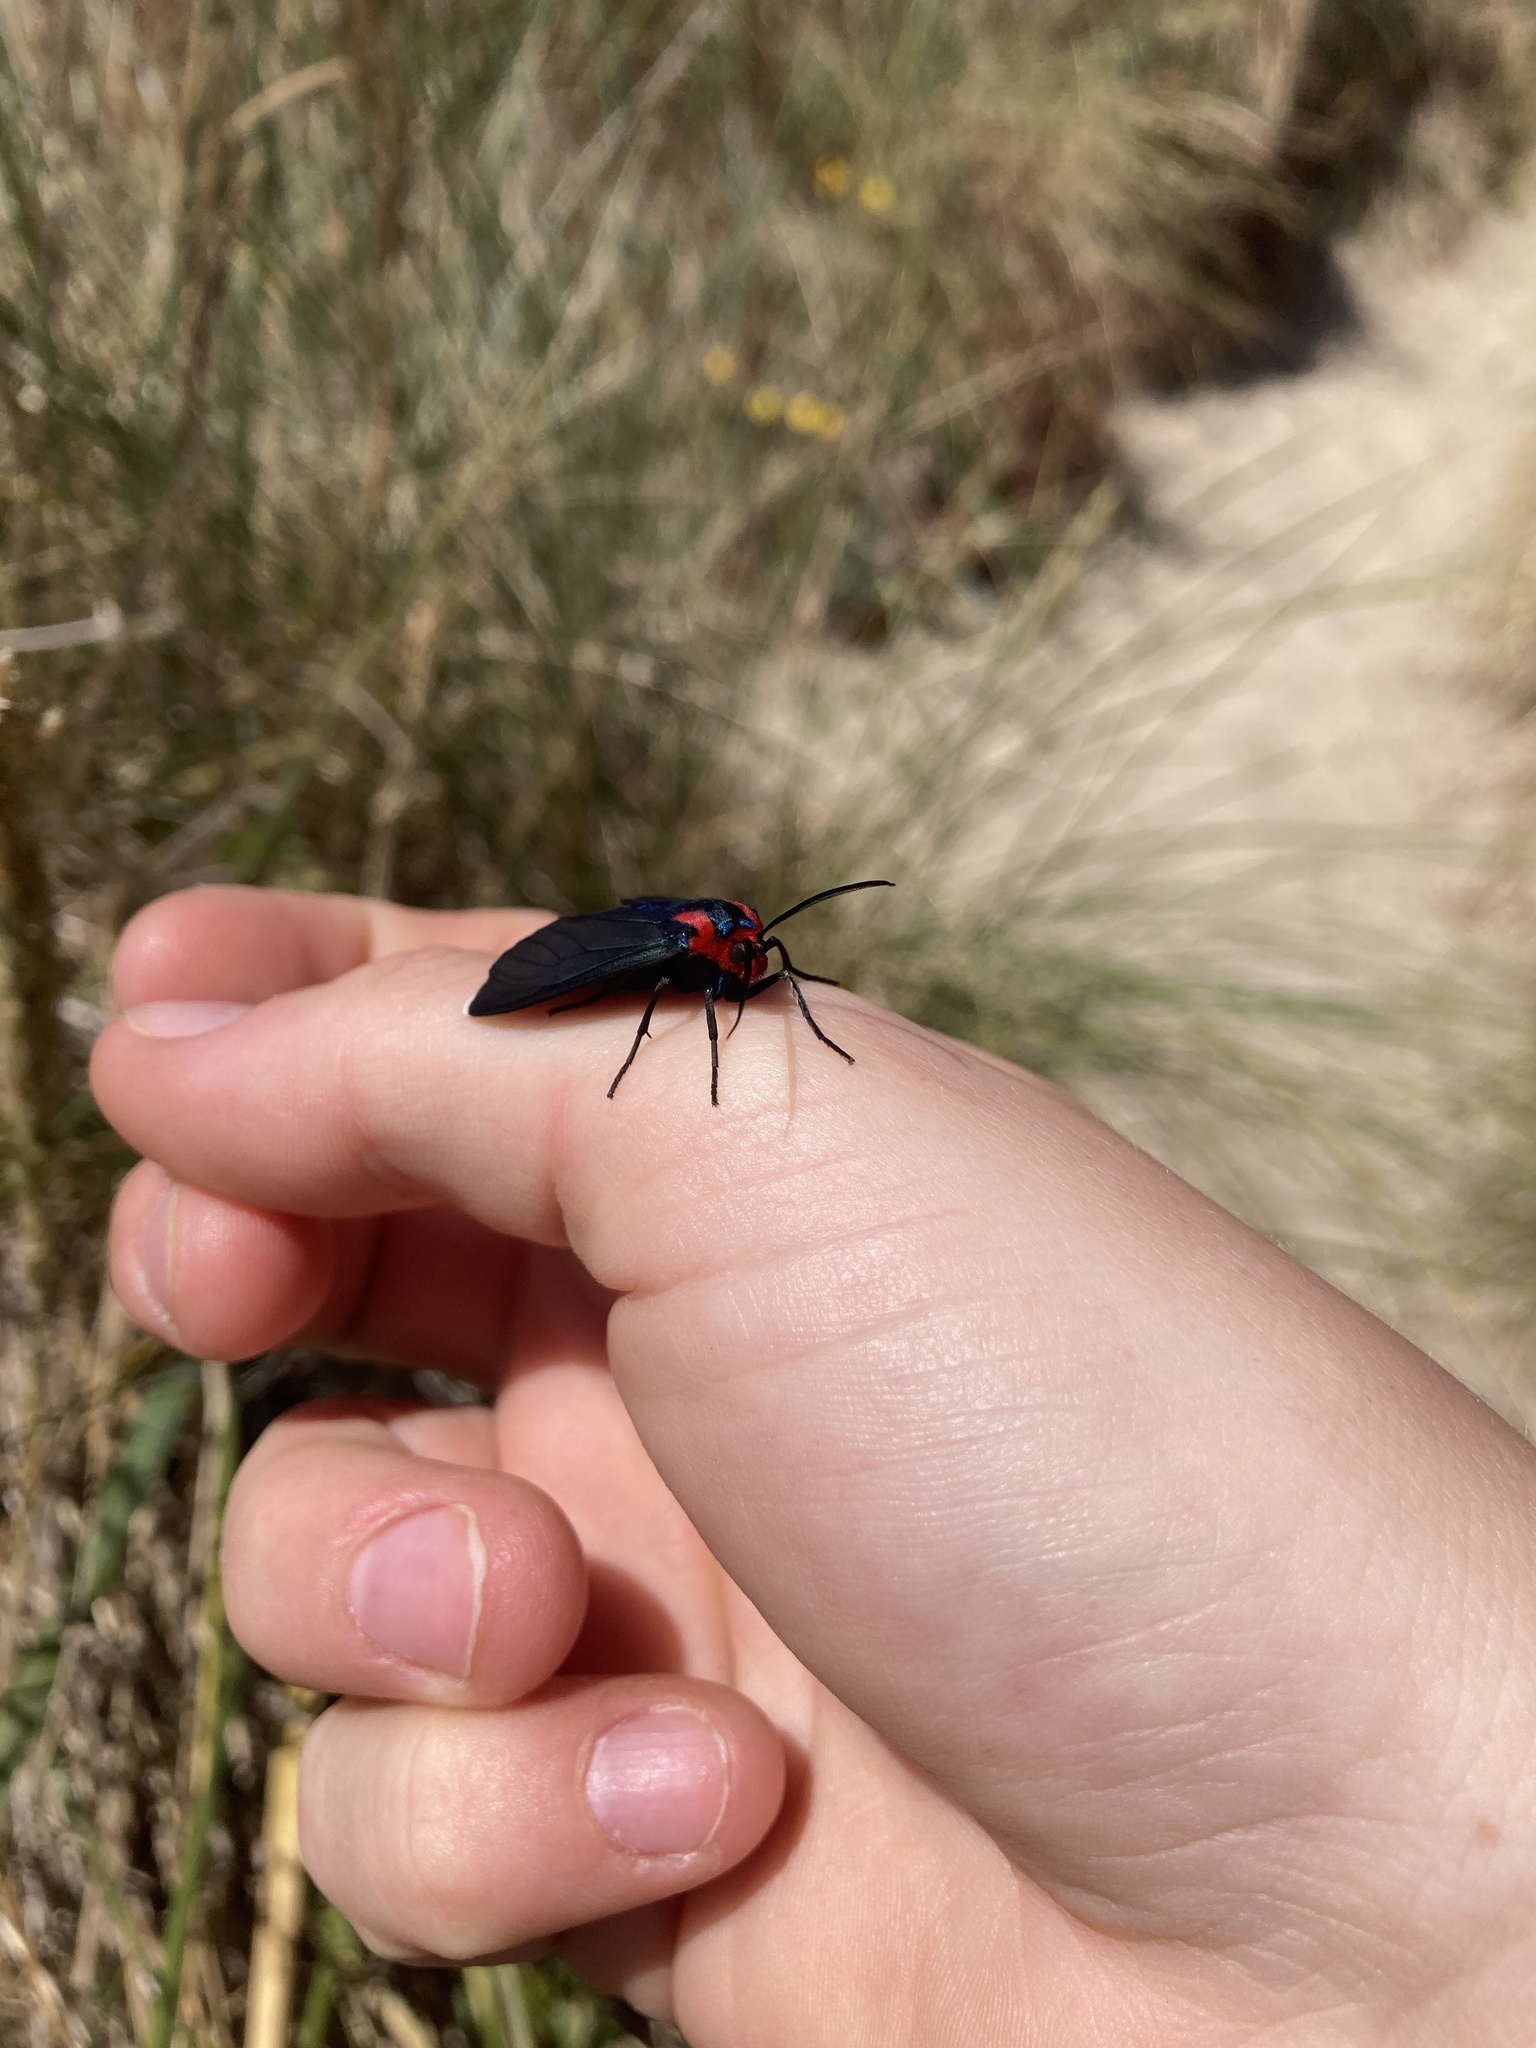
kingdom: Animalia
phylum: Arthropoda
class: Insecta
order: Lepidoptera
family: Erebidae
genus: Ctenucha
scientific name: Ctenucha rubroscapus
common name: Red-shouldered ctenucha
